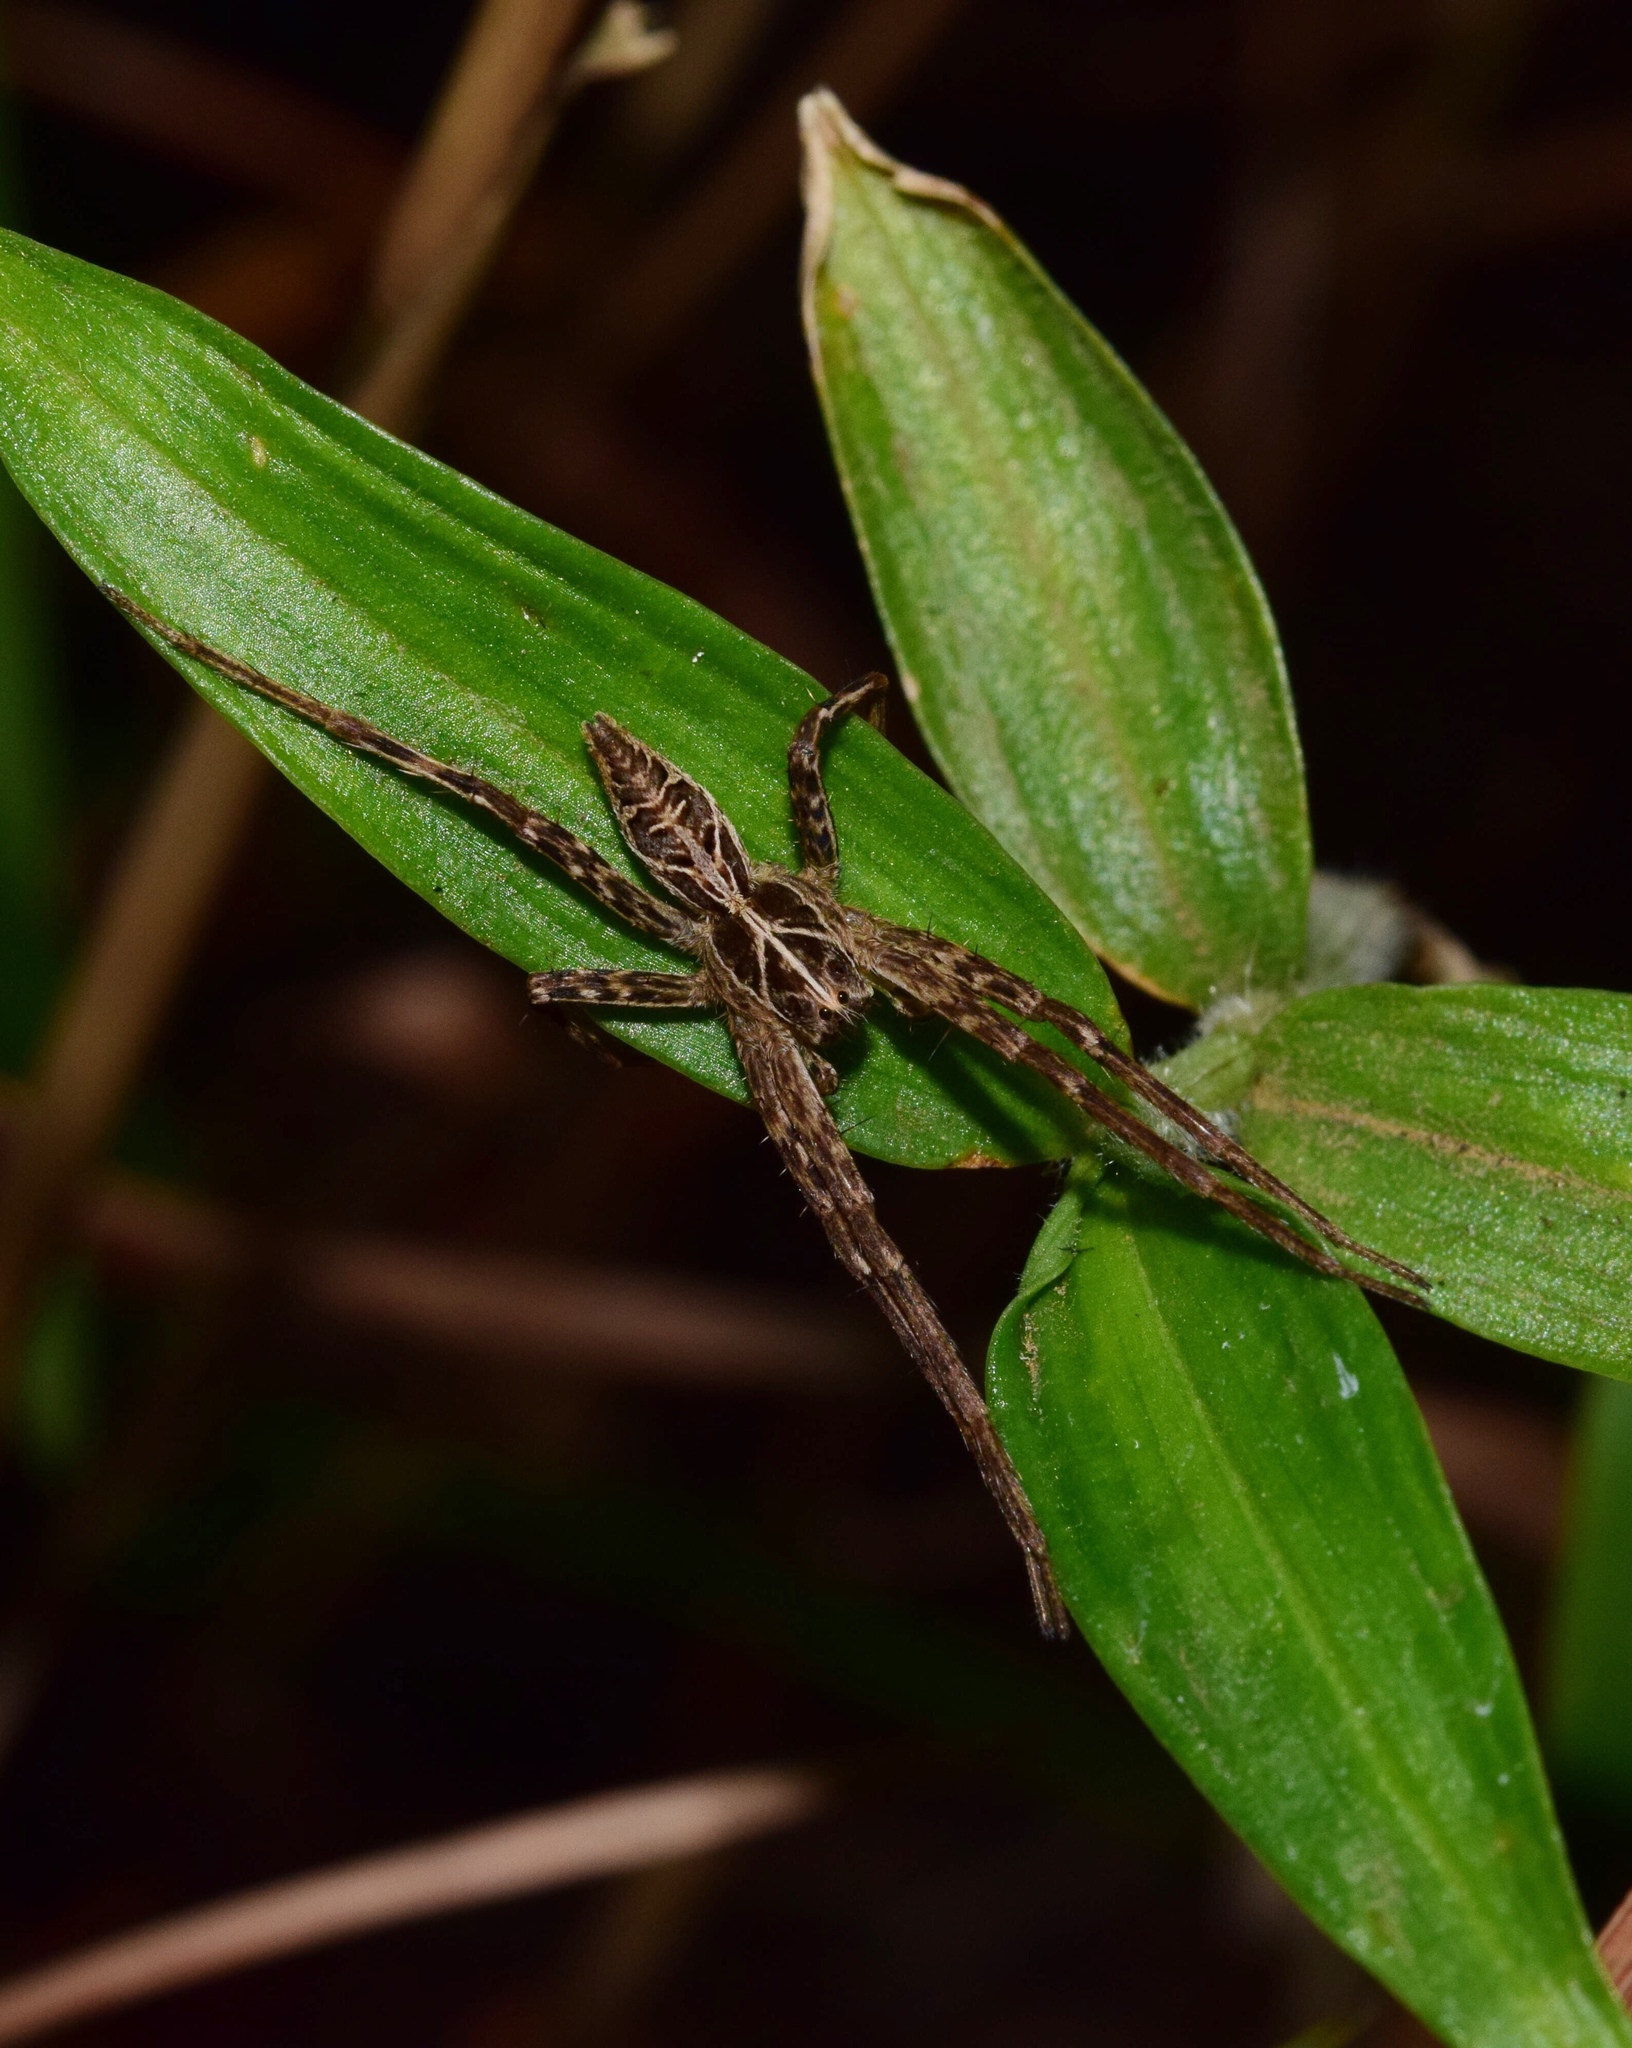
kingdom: Animalia
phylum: Arthropoda
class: Arachnida
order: Araneae
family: Pisauridae
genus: Rothus
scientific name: Rothus vittatus
